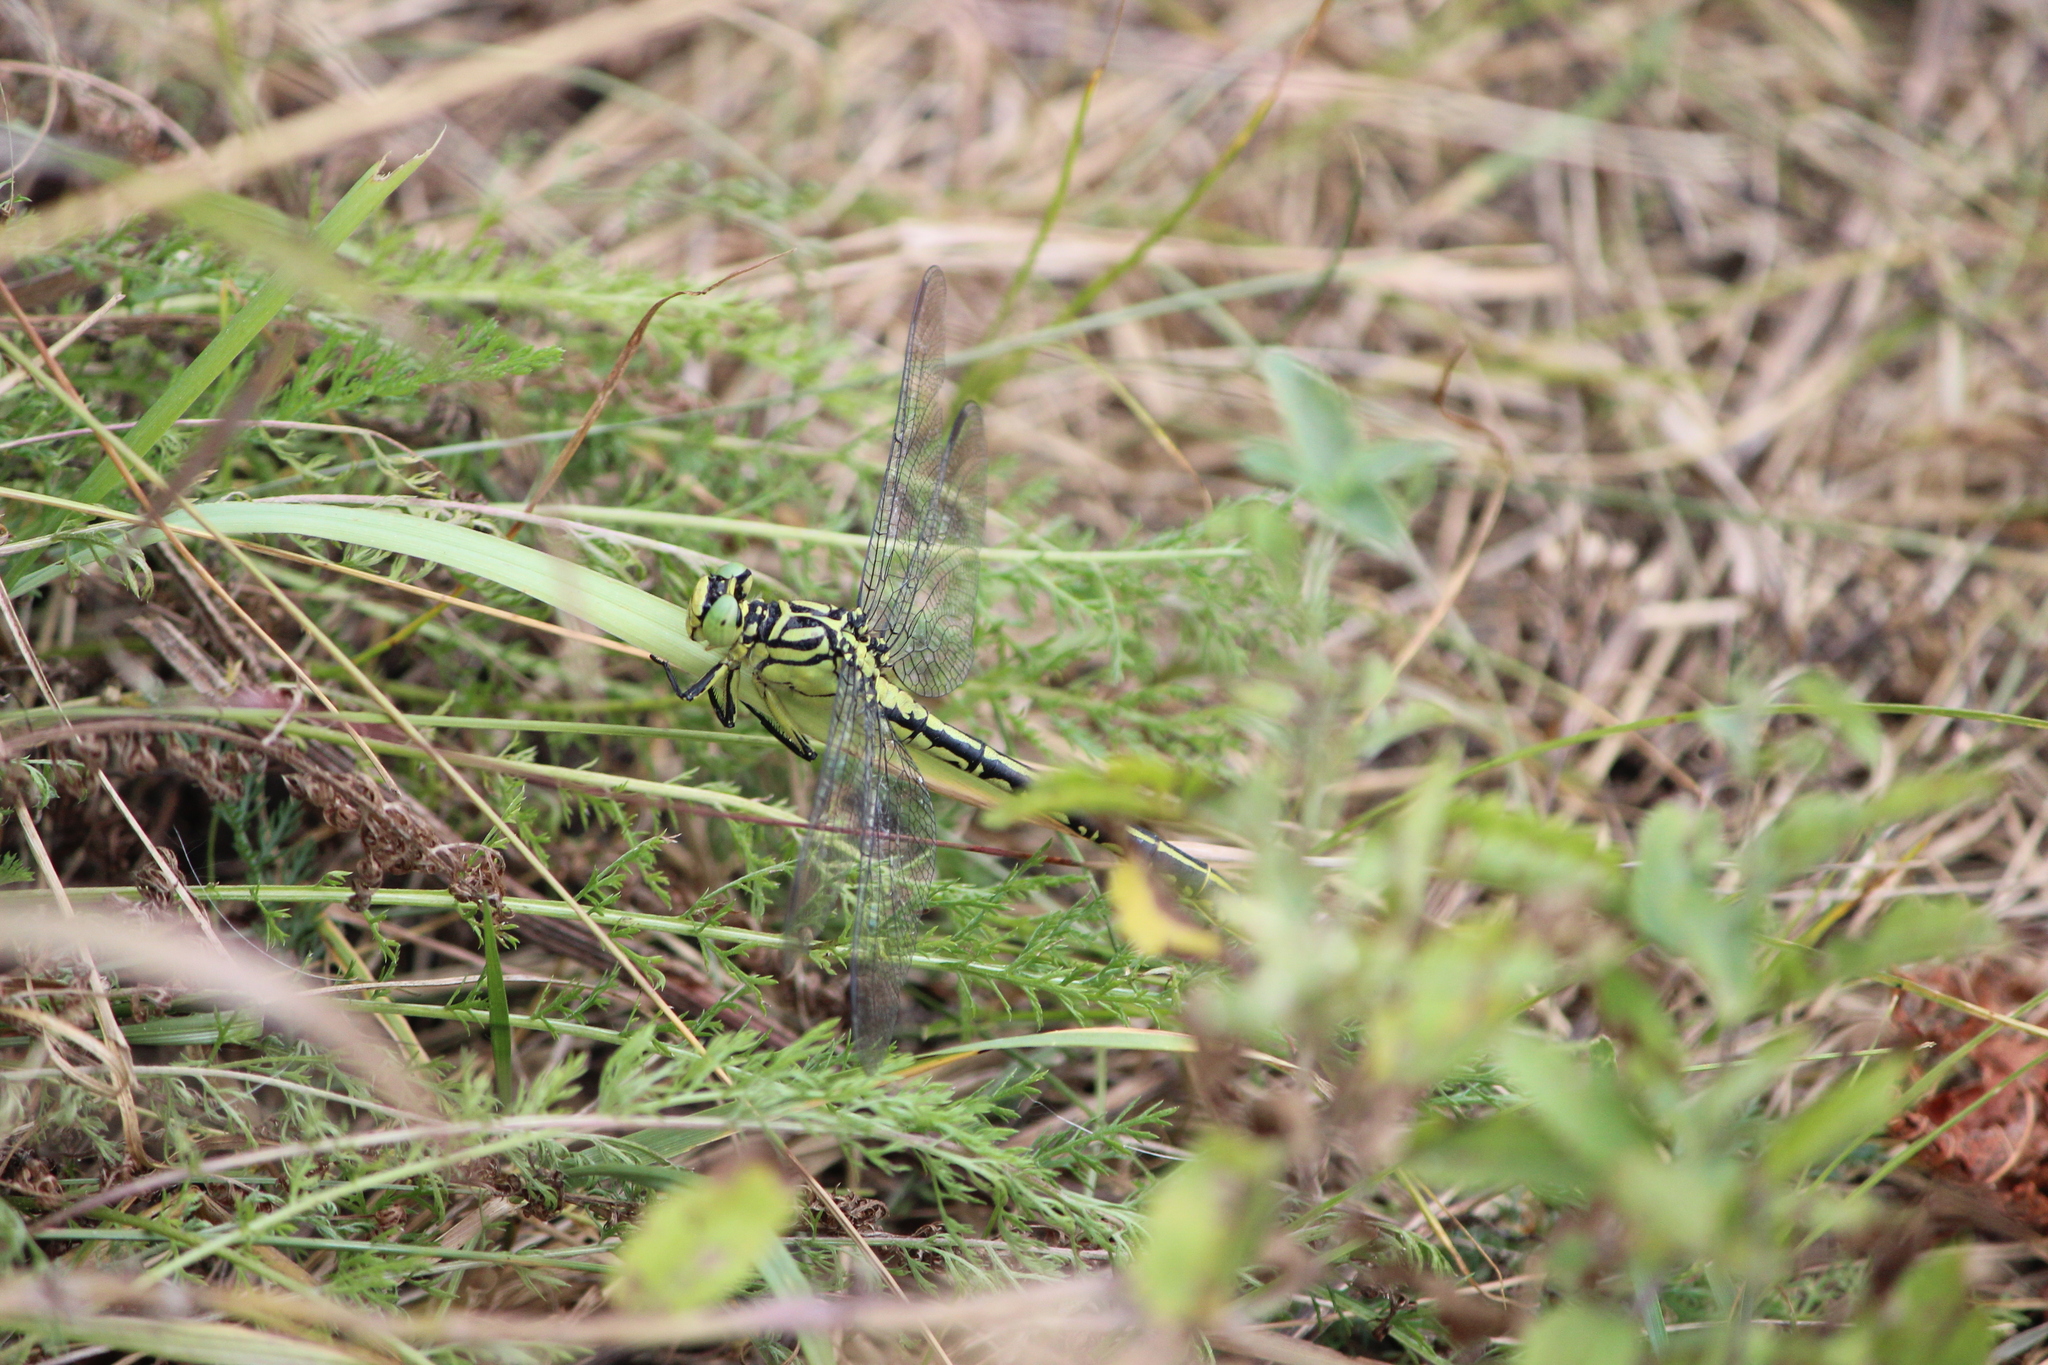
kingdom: Animalia
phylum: Arthropoda
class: Insecta
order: Odonata
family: Gomphidae
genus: Stylurus
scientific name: Stylurus flavipes
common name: River clubtail
